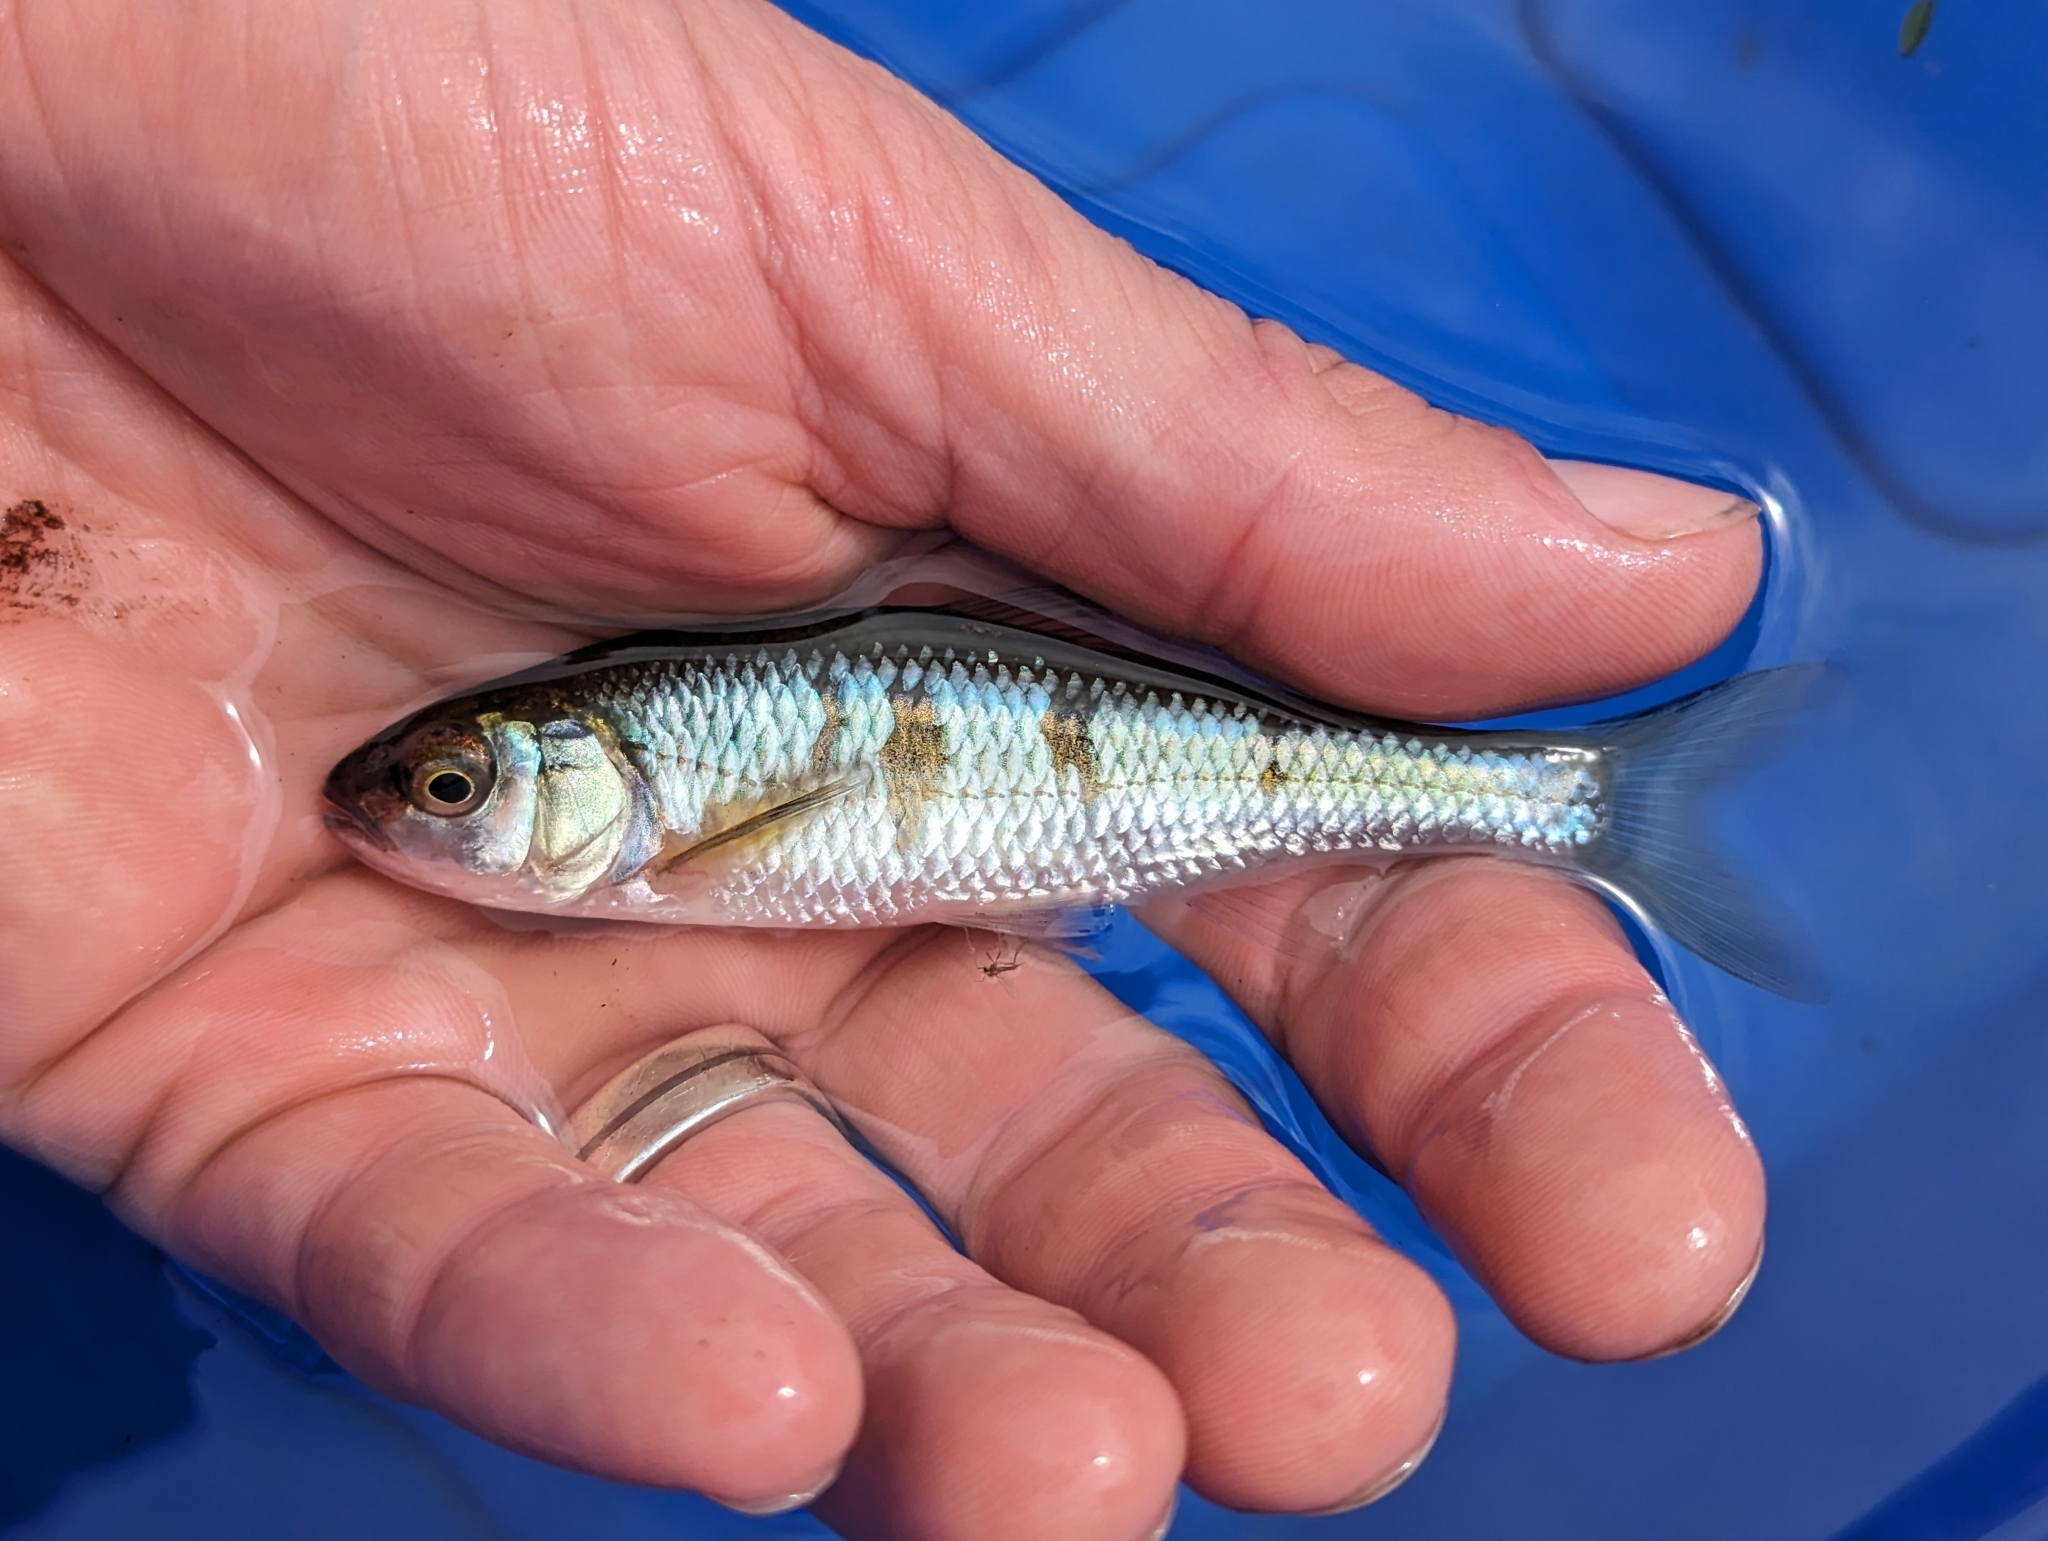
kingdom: Animalia
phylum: Chordata
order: Cypriniformes
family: Cyprinidae
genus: Luxilus
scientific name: Luxilus cornutus
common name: Common shiner
